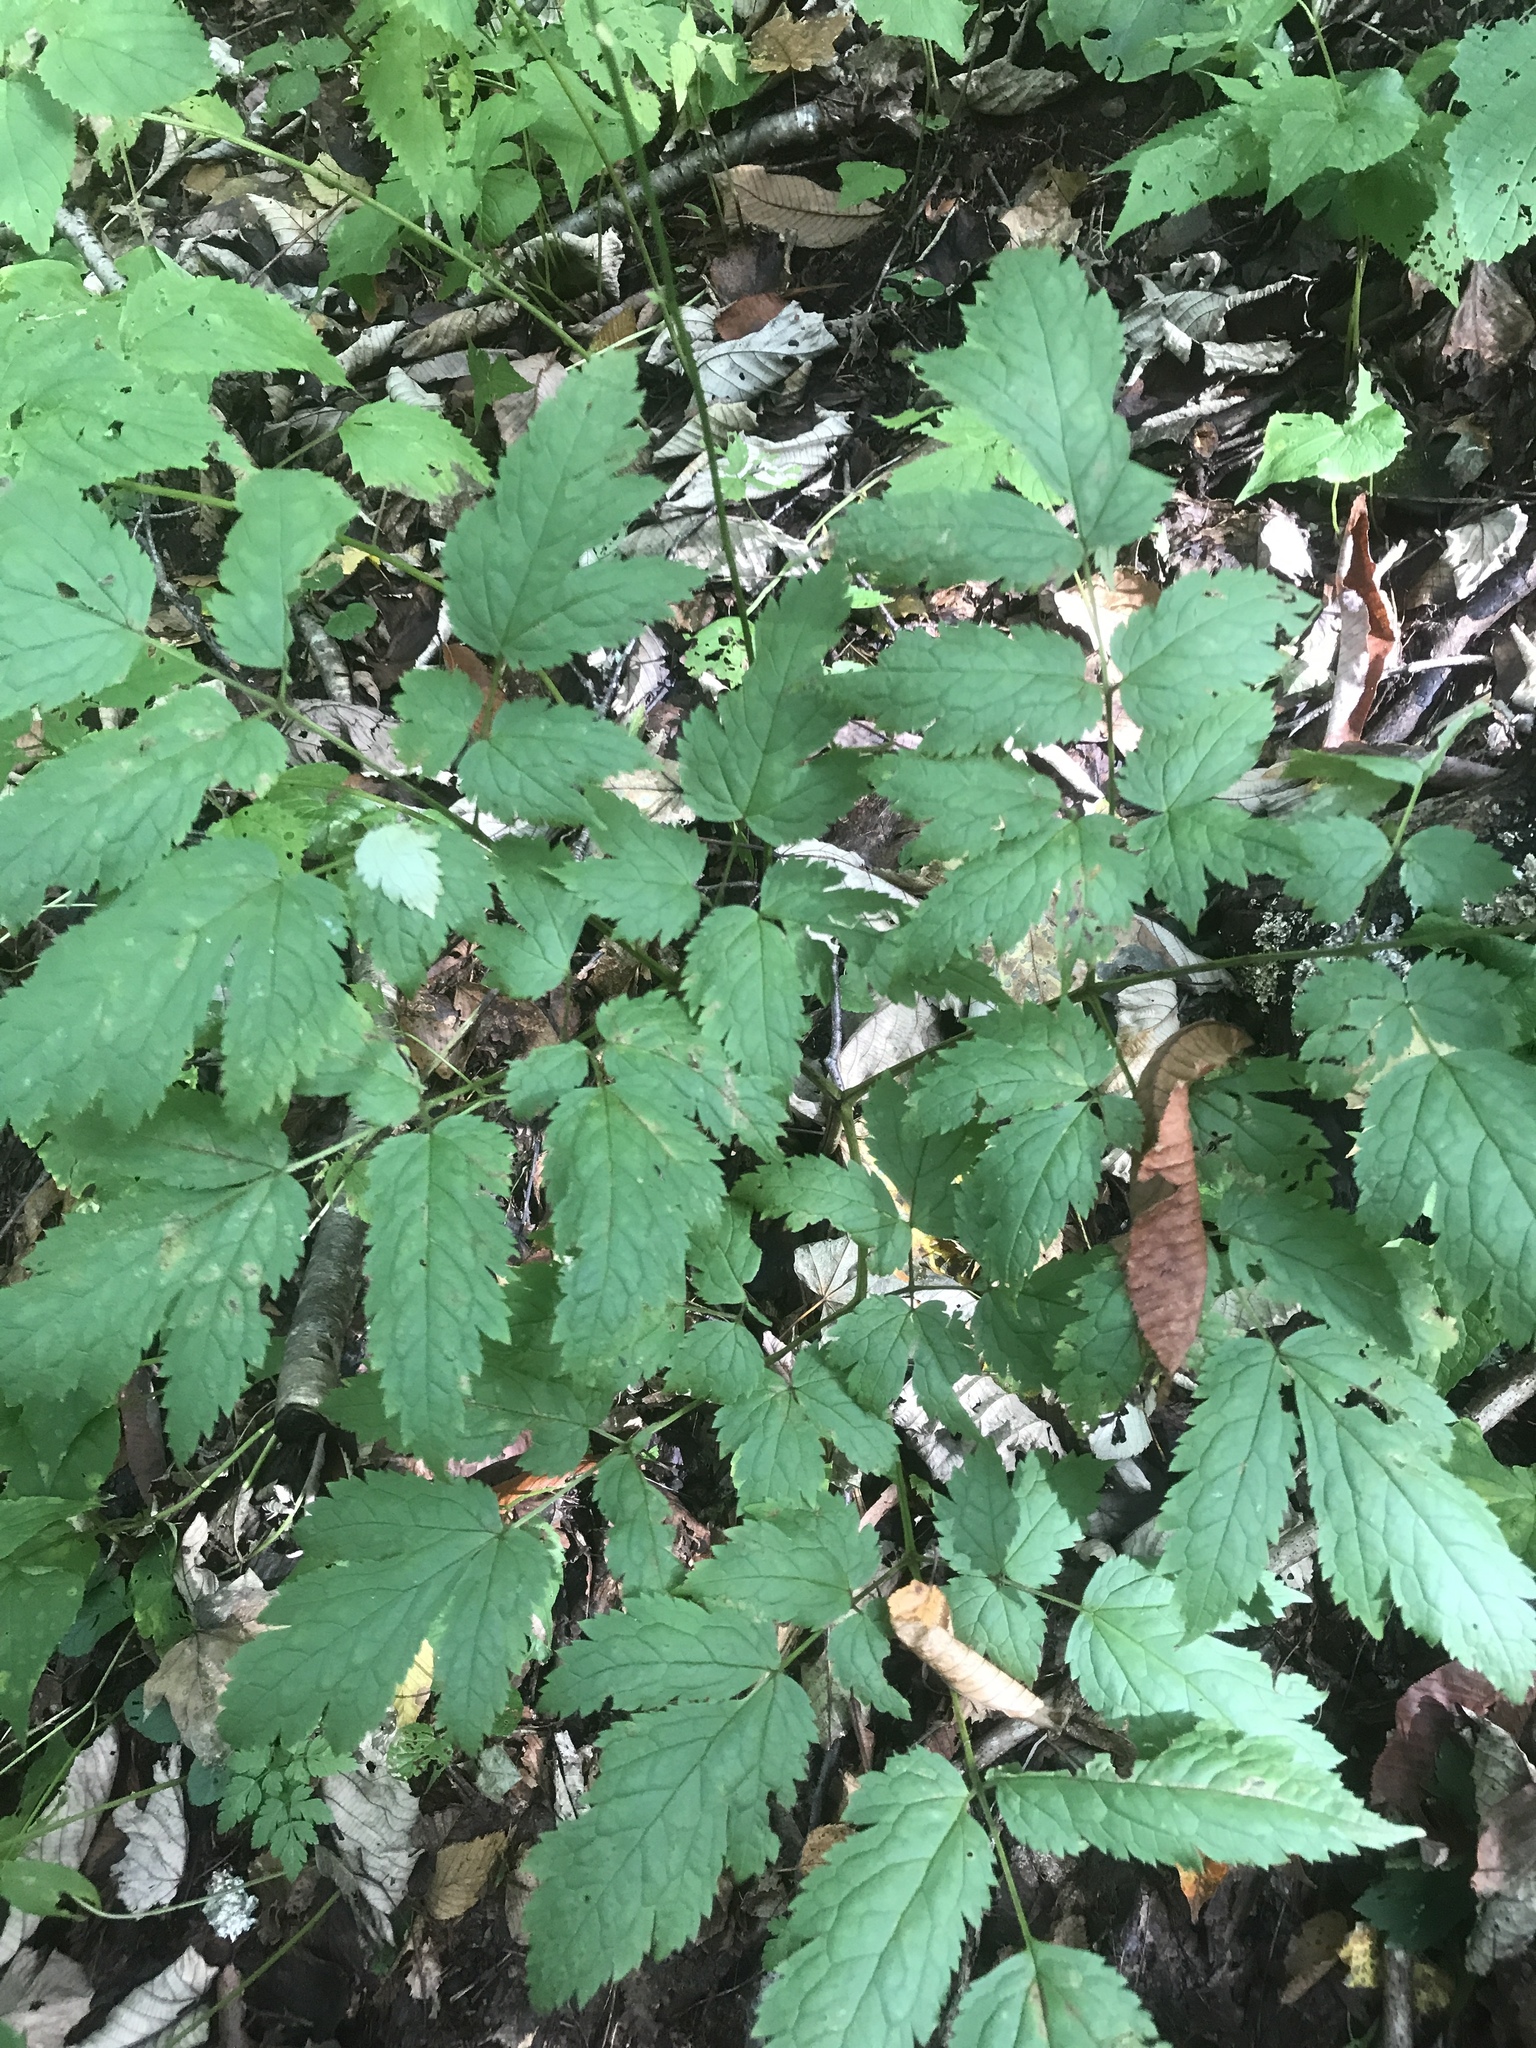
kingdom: Plantae
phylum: Tracheophyta
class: Magnoliopsida
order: Ranunculales
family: Ranunculaceae
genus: Actaea
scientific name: Actaea podocarpa
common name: American bugbane
